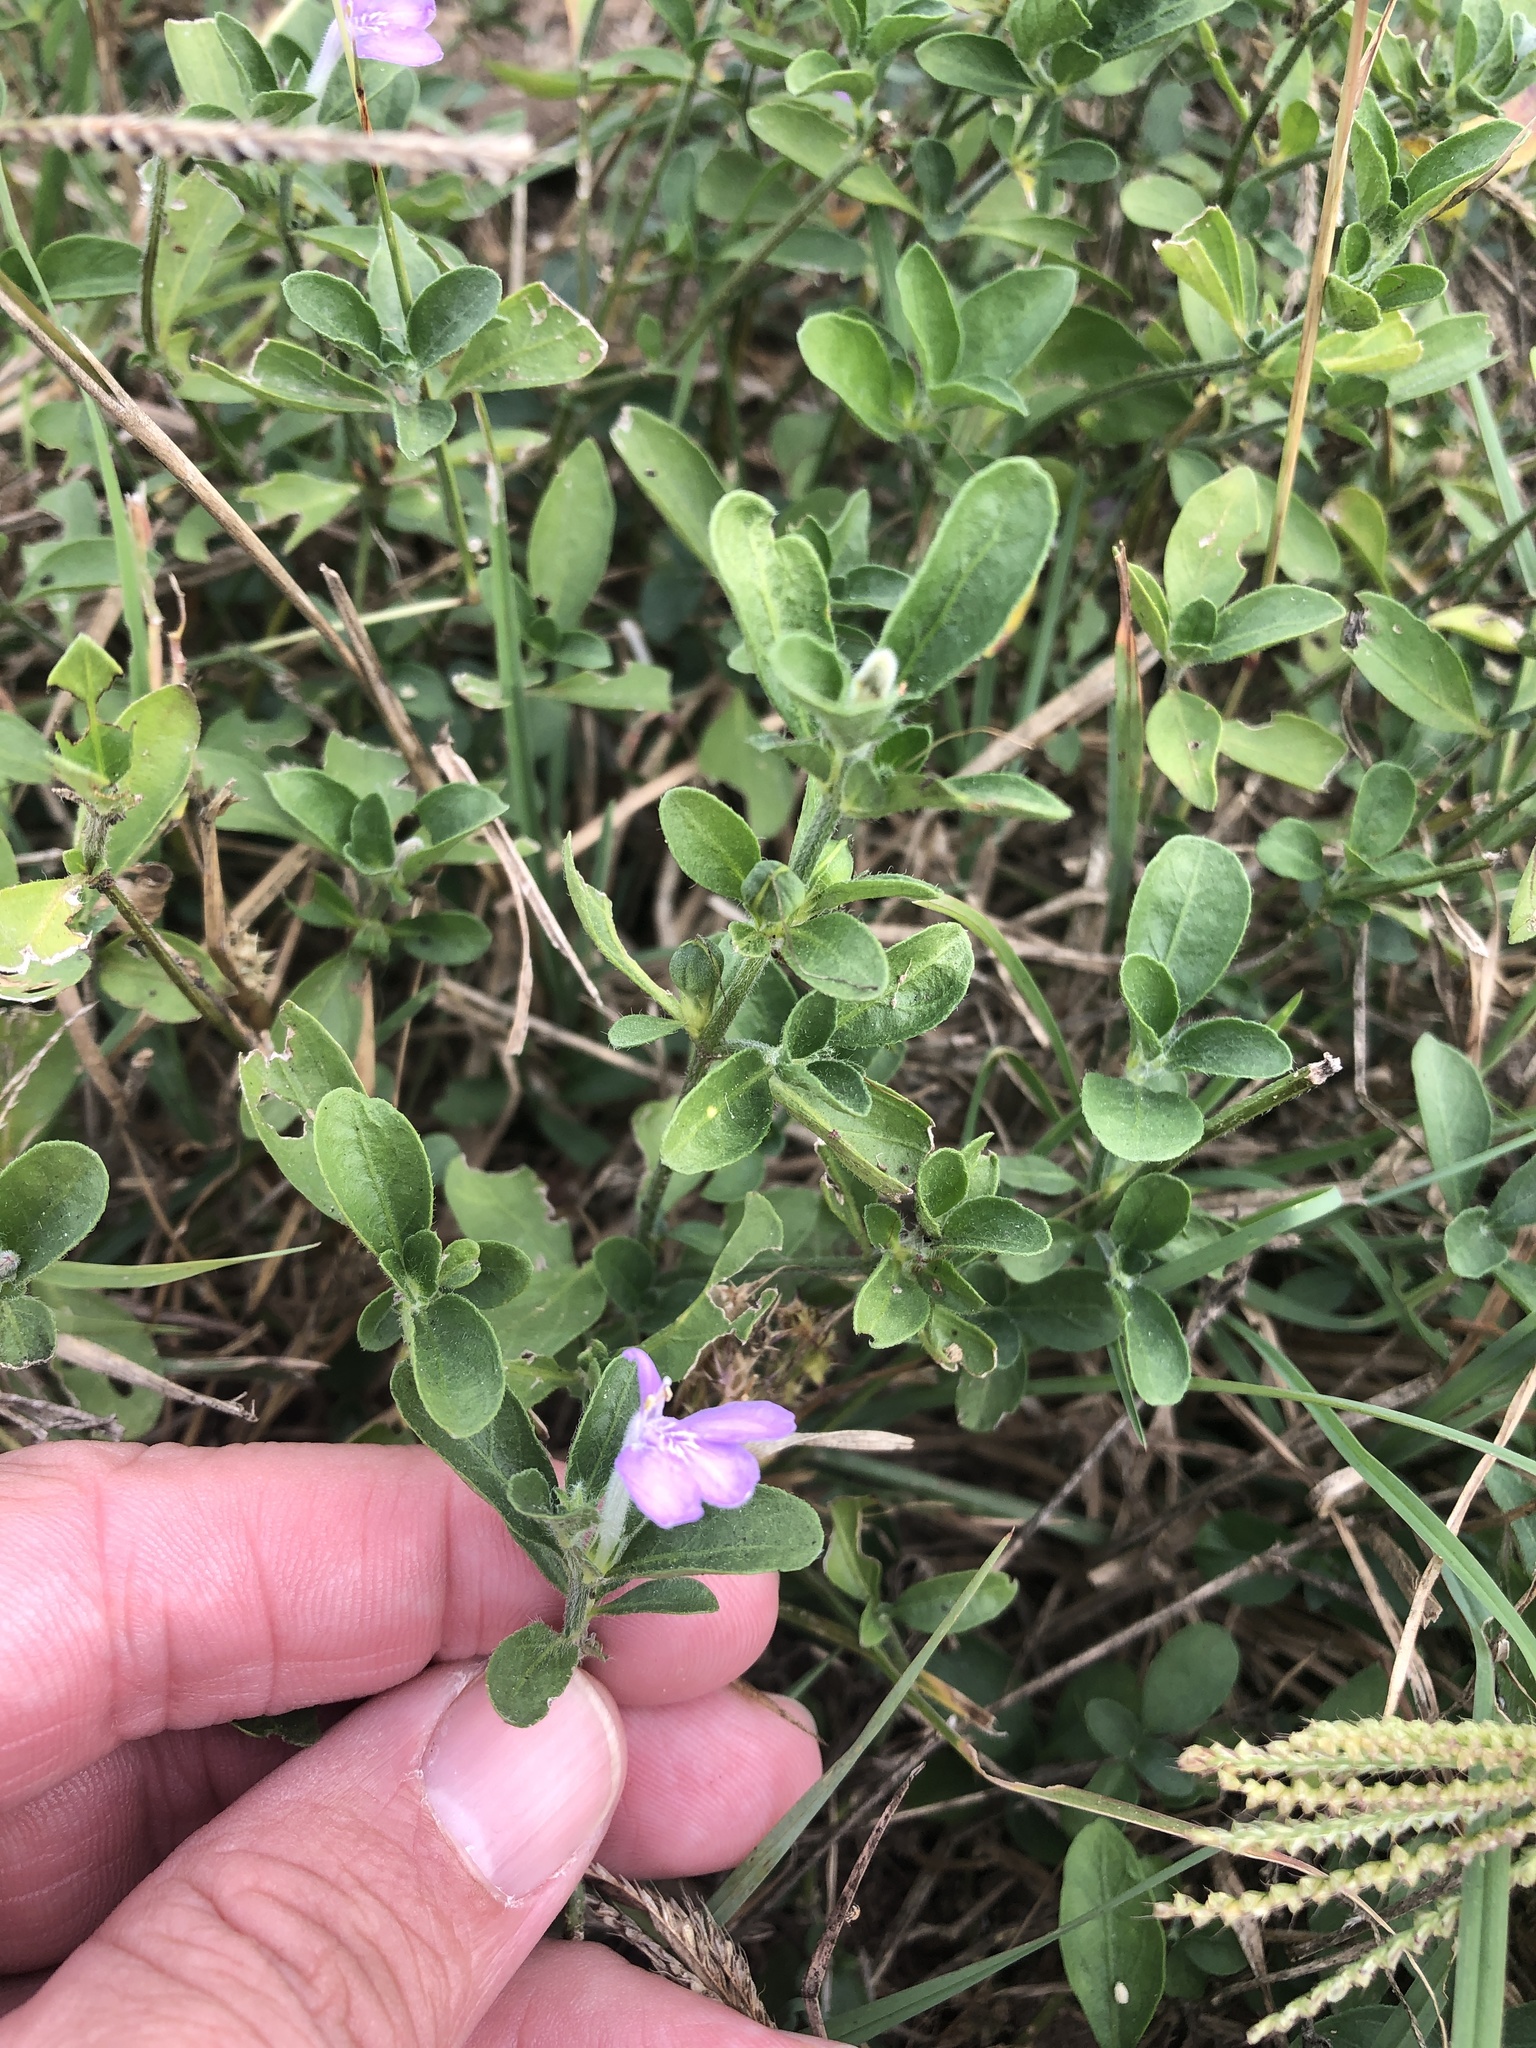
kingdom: Plantae
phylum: Tracheophyta
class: Magnoliopsida
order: Lamiales
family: Acanthaceae
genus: Justicia
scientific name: Justicia pilosella
